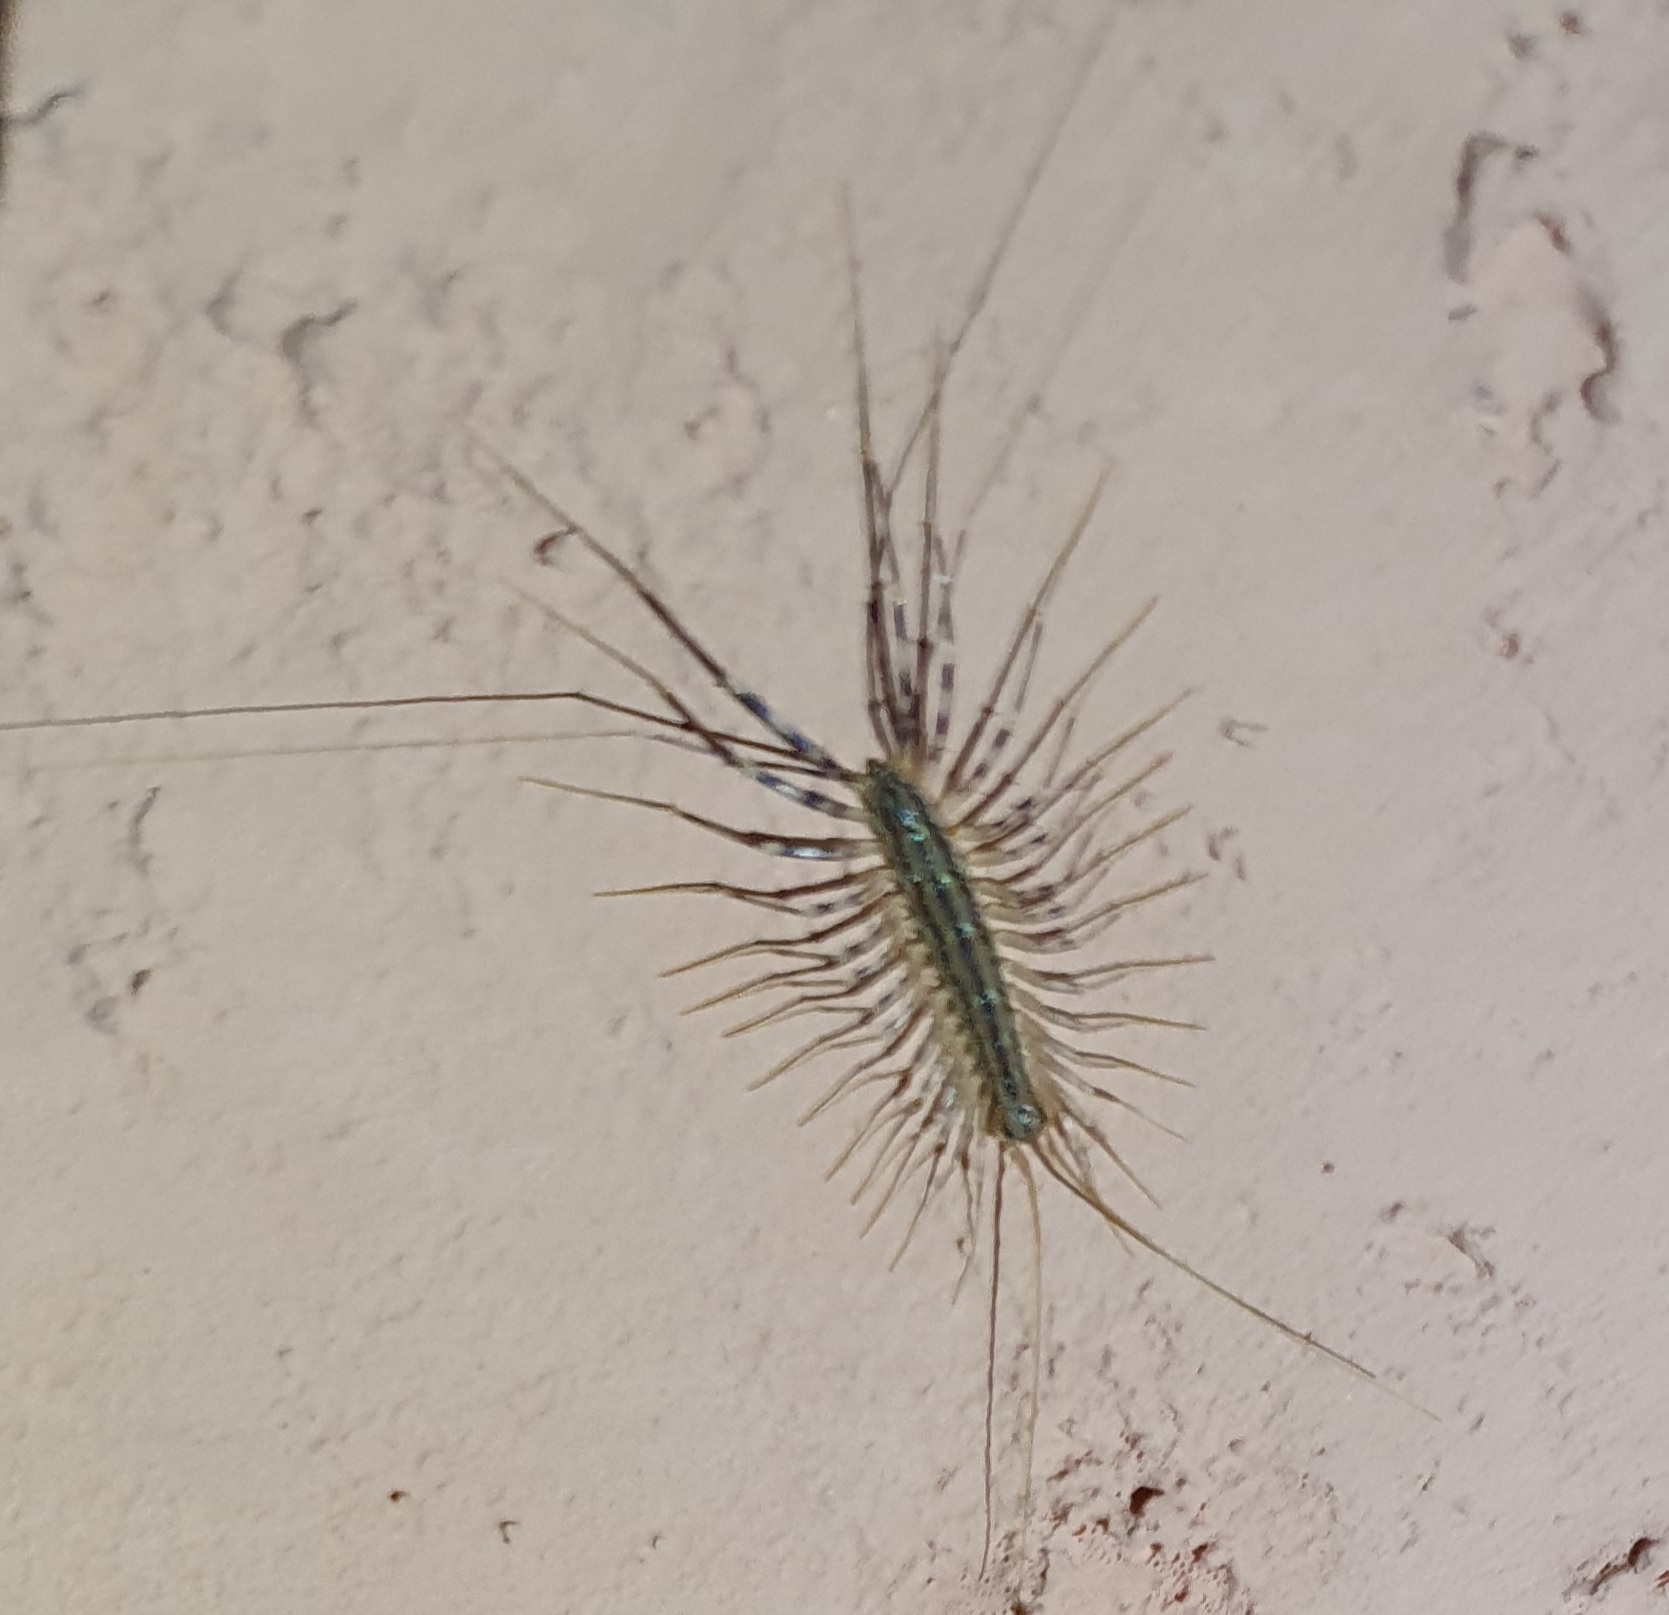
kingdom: Animalia
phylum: Arthropoda
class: Chilopoda
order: Scutigeromorpha
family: Scutigeridae
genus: Scutigera
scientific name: Scutigera coleoptrata
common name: House centipede
